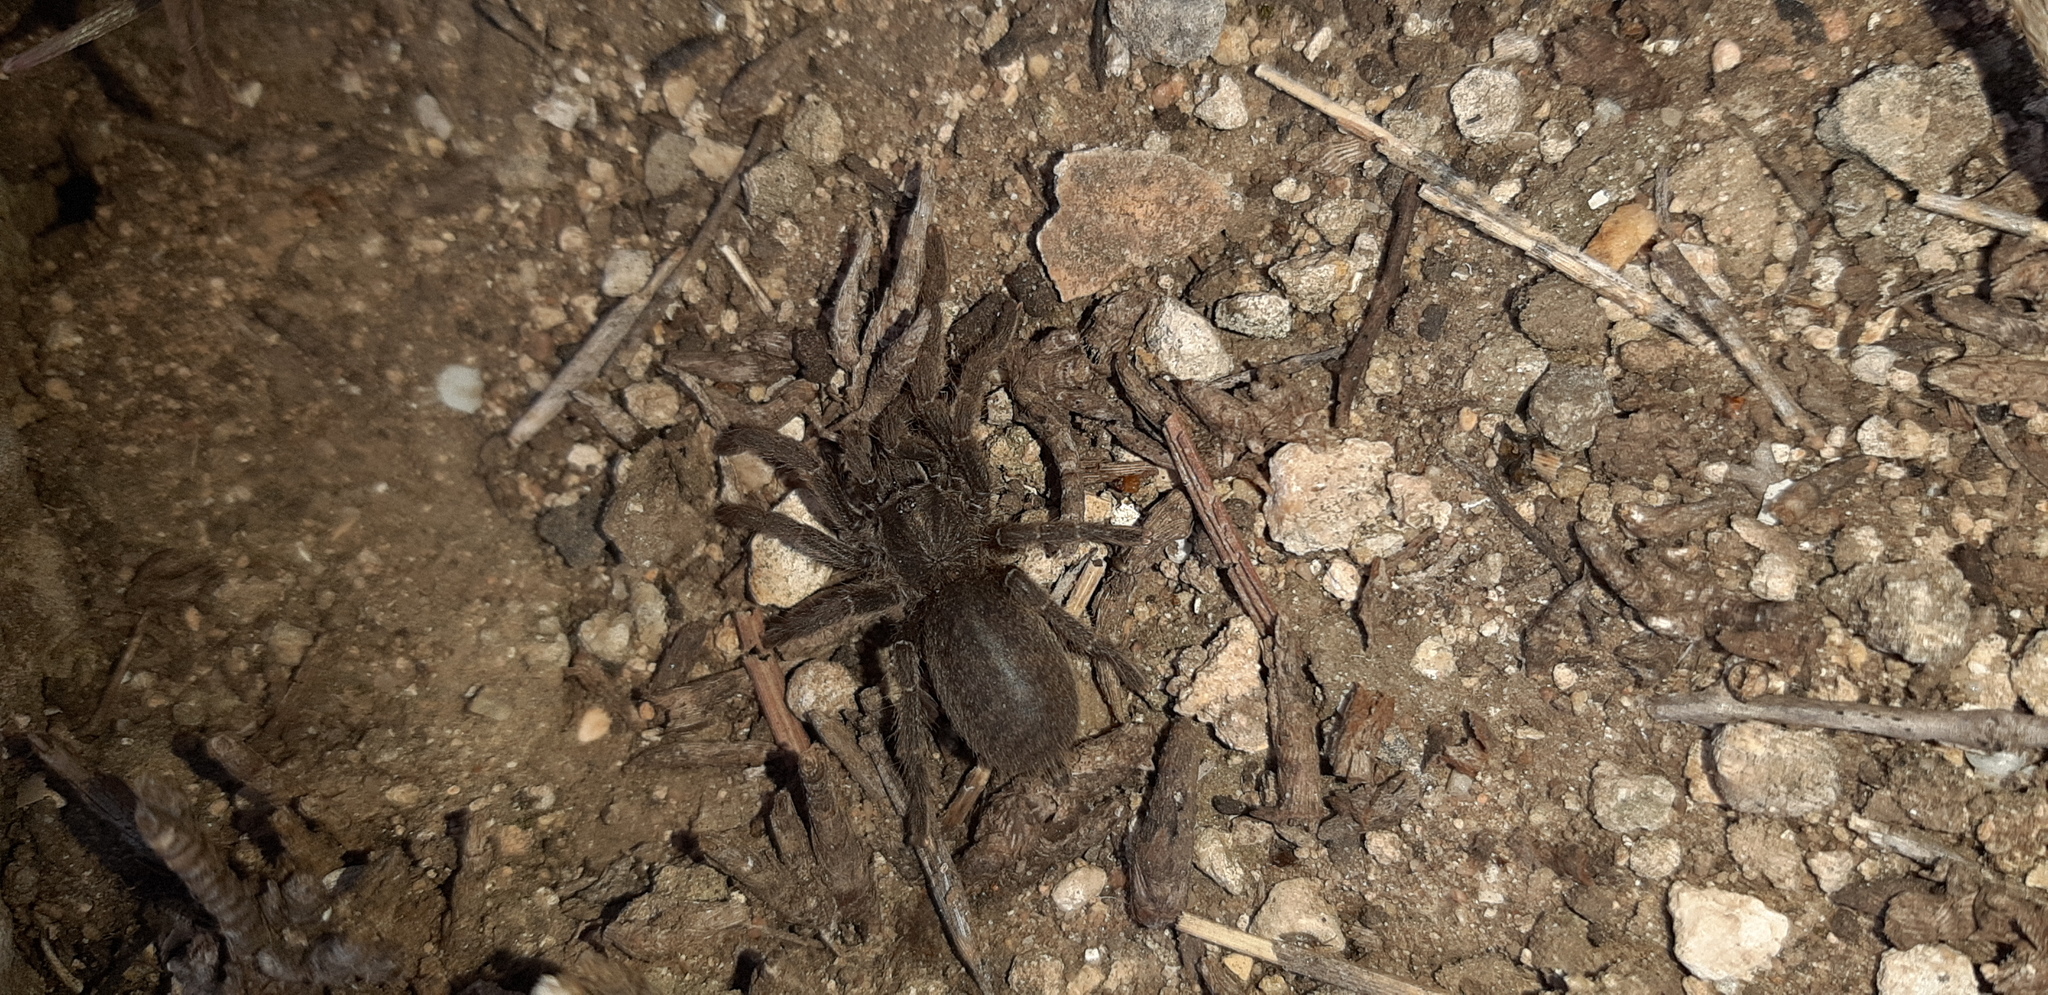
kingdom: Animalia
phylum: Arthropoda
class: Arachnida
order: Araneae
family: Theraphosidae
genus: Brachionopus
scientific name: Brachionopus robustus
